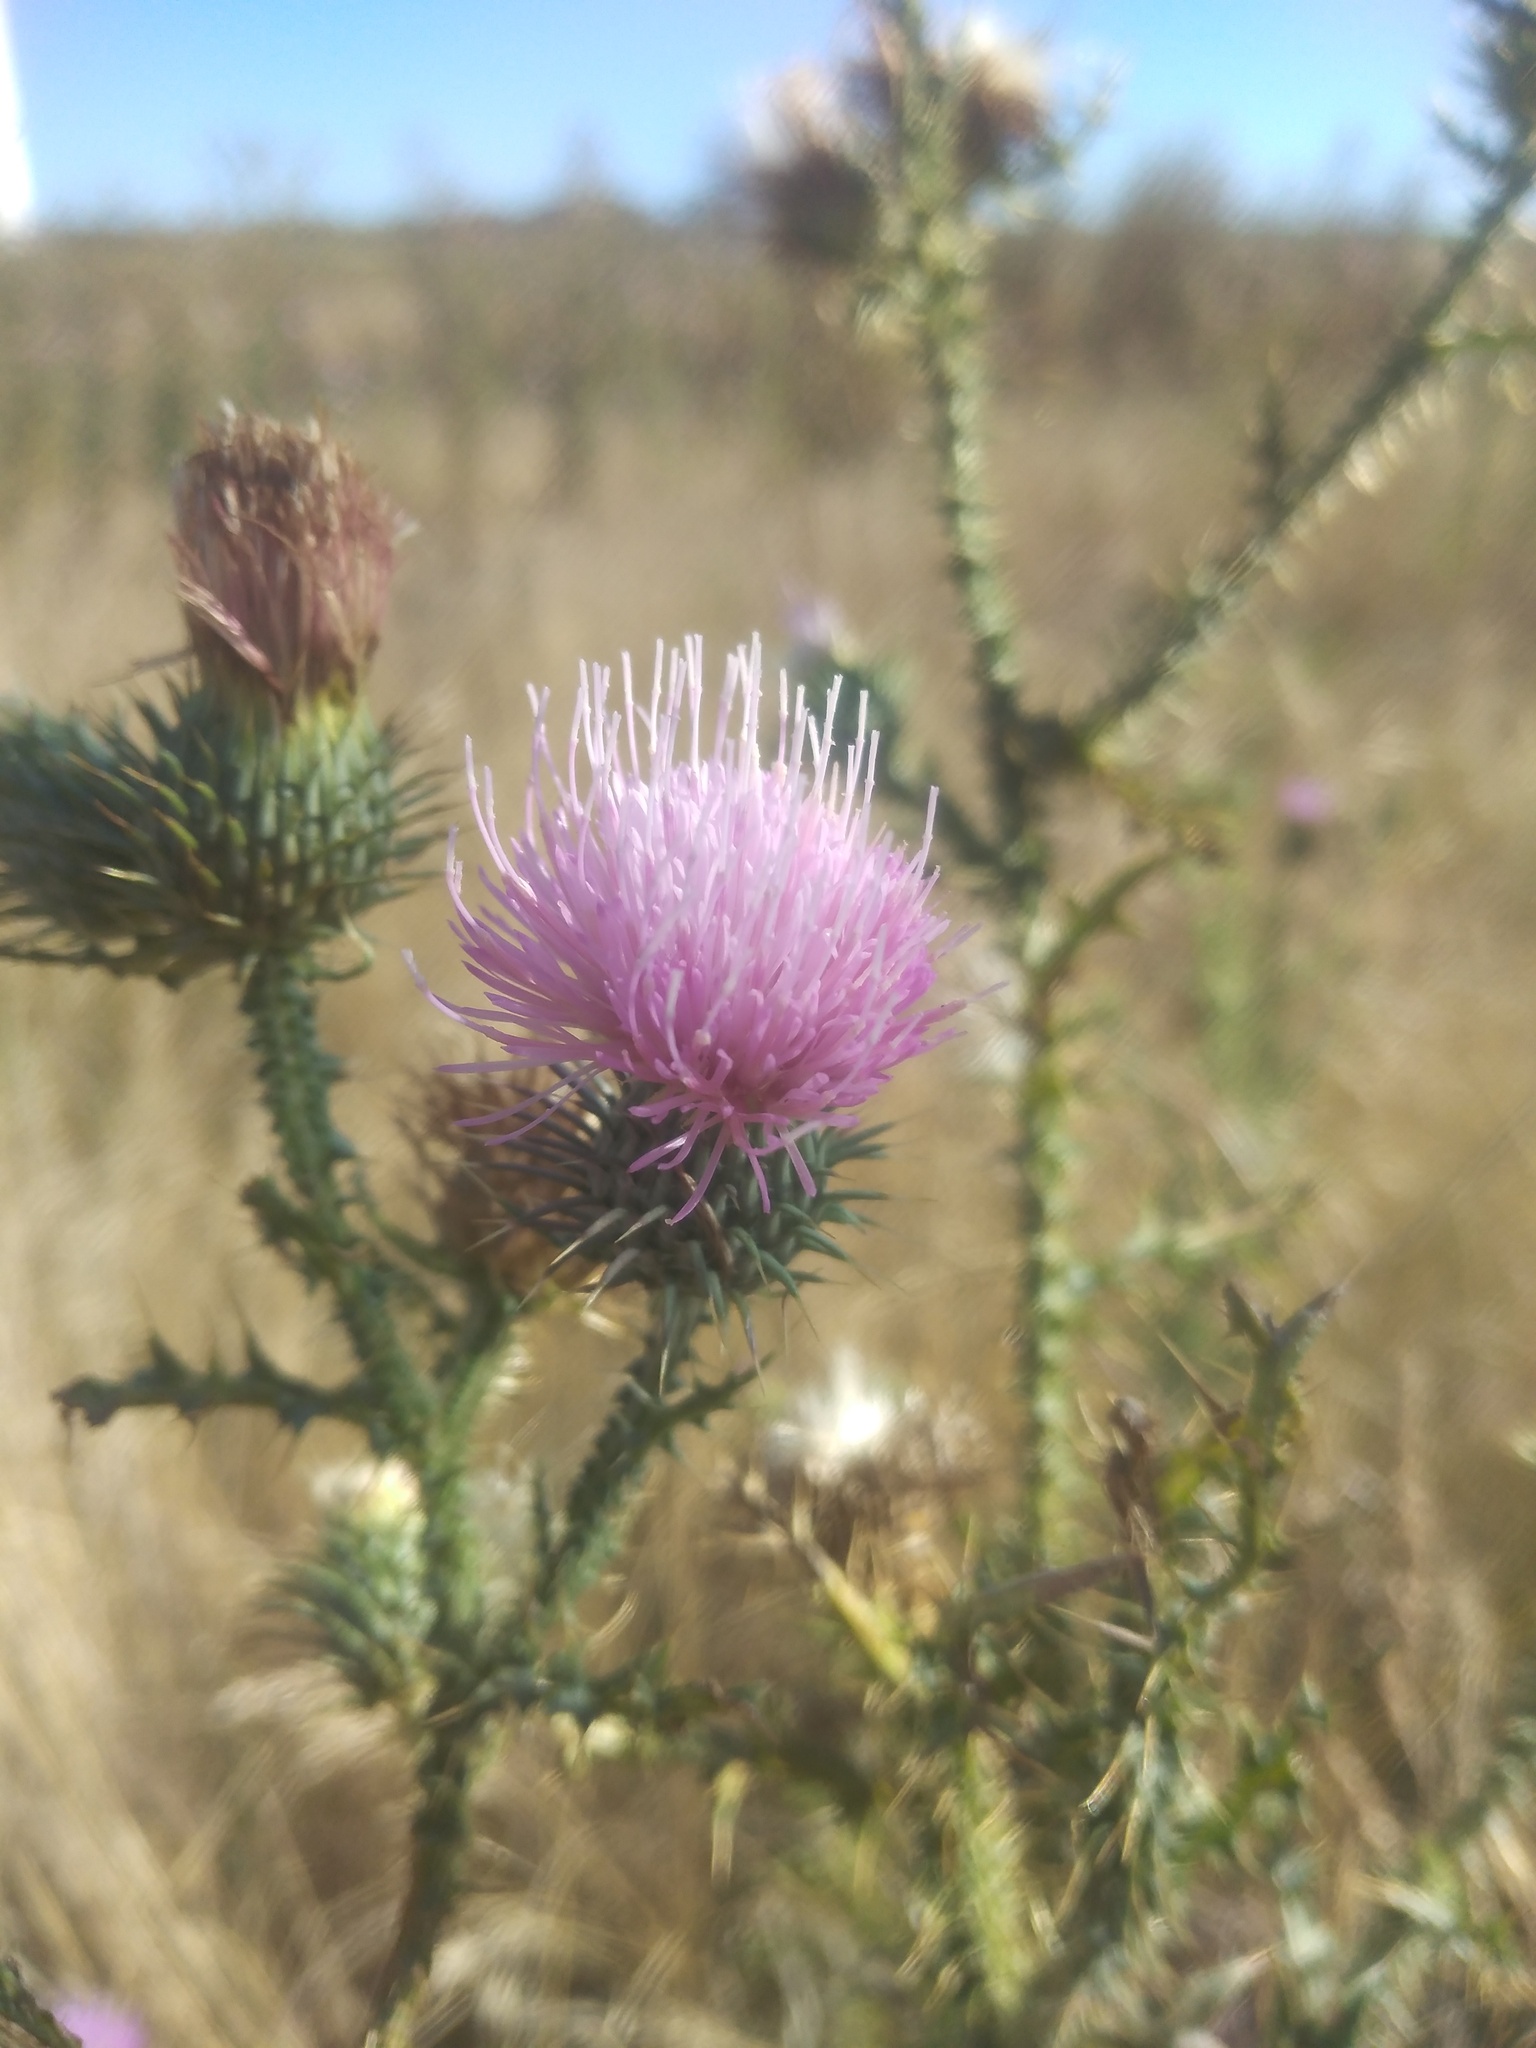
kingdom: Plantae
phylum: Tracheophyta
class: Magnoliopsida
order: Asterales
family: Asteraceae
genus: Carduus
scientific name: Carduus acanthoides
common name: Plumeless thistle
